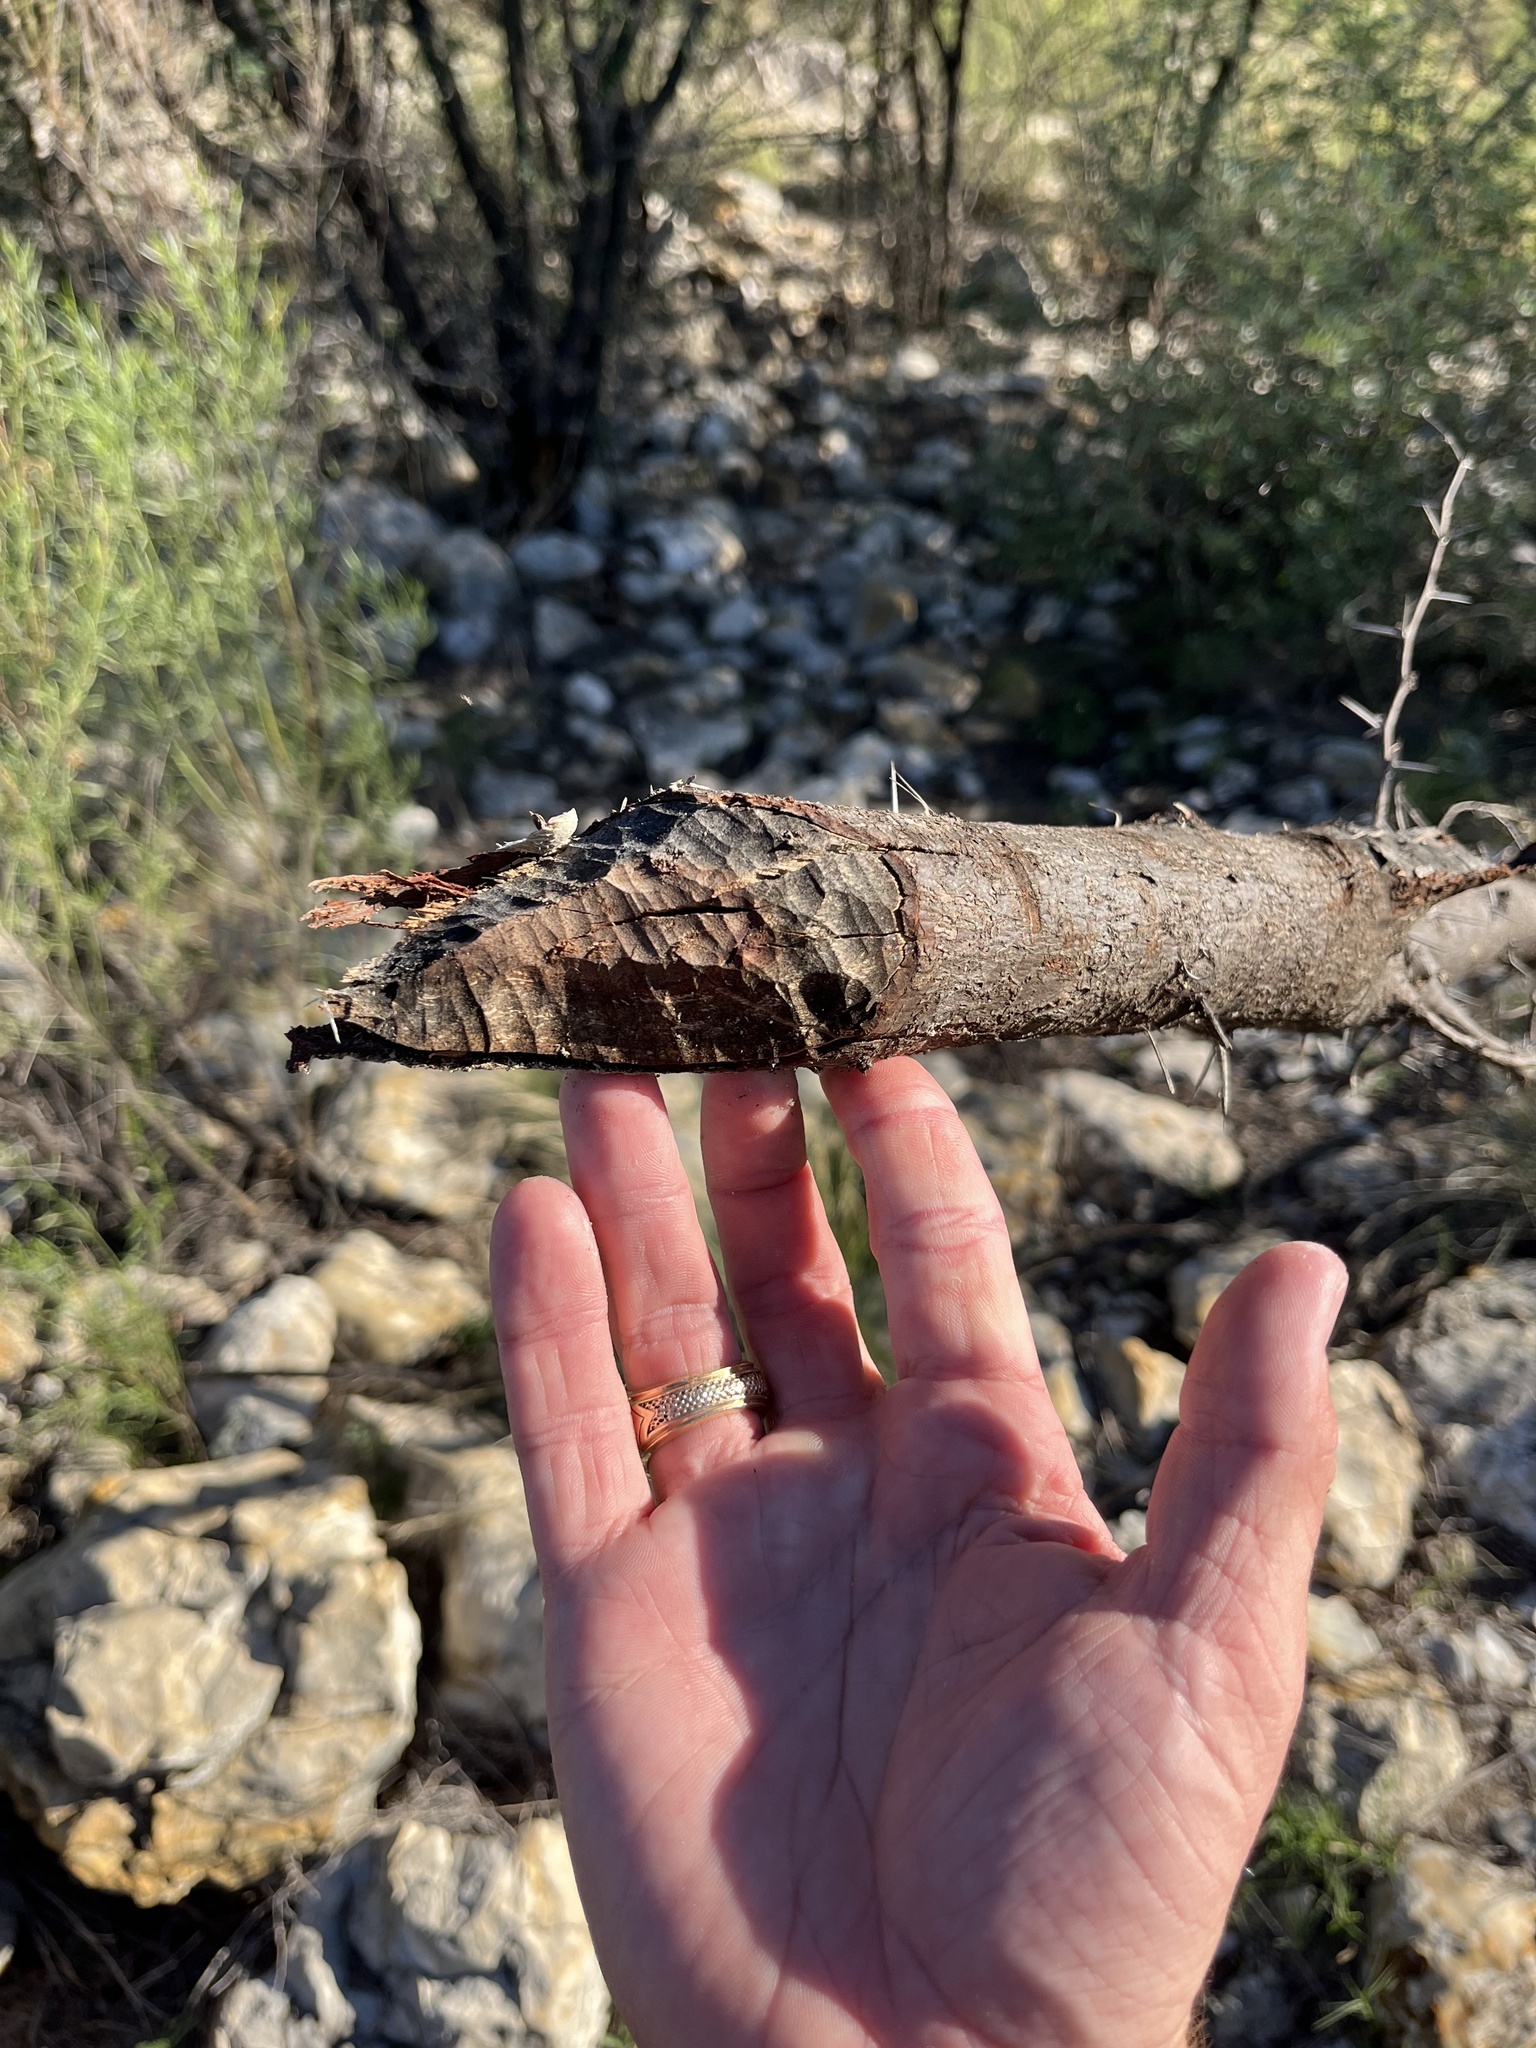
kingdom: Animalia
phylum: Chordata
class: Mammalia
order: Rodentia
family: Castoridae
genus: Castor
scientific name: Castor canadensis
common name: American beaver
